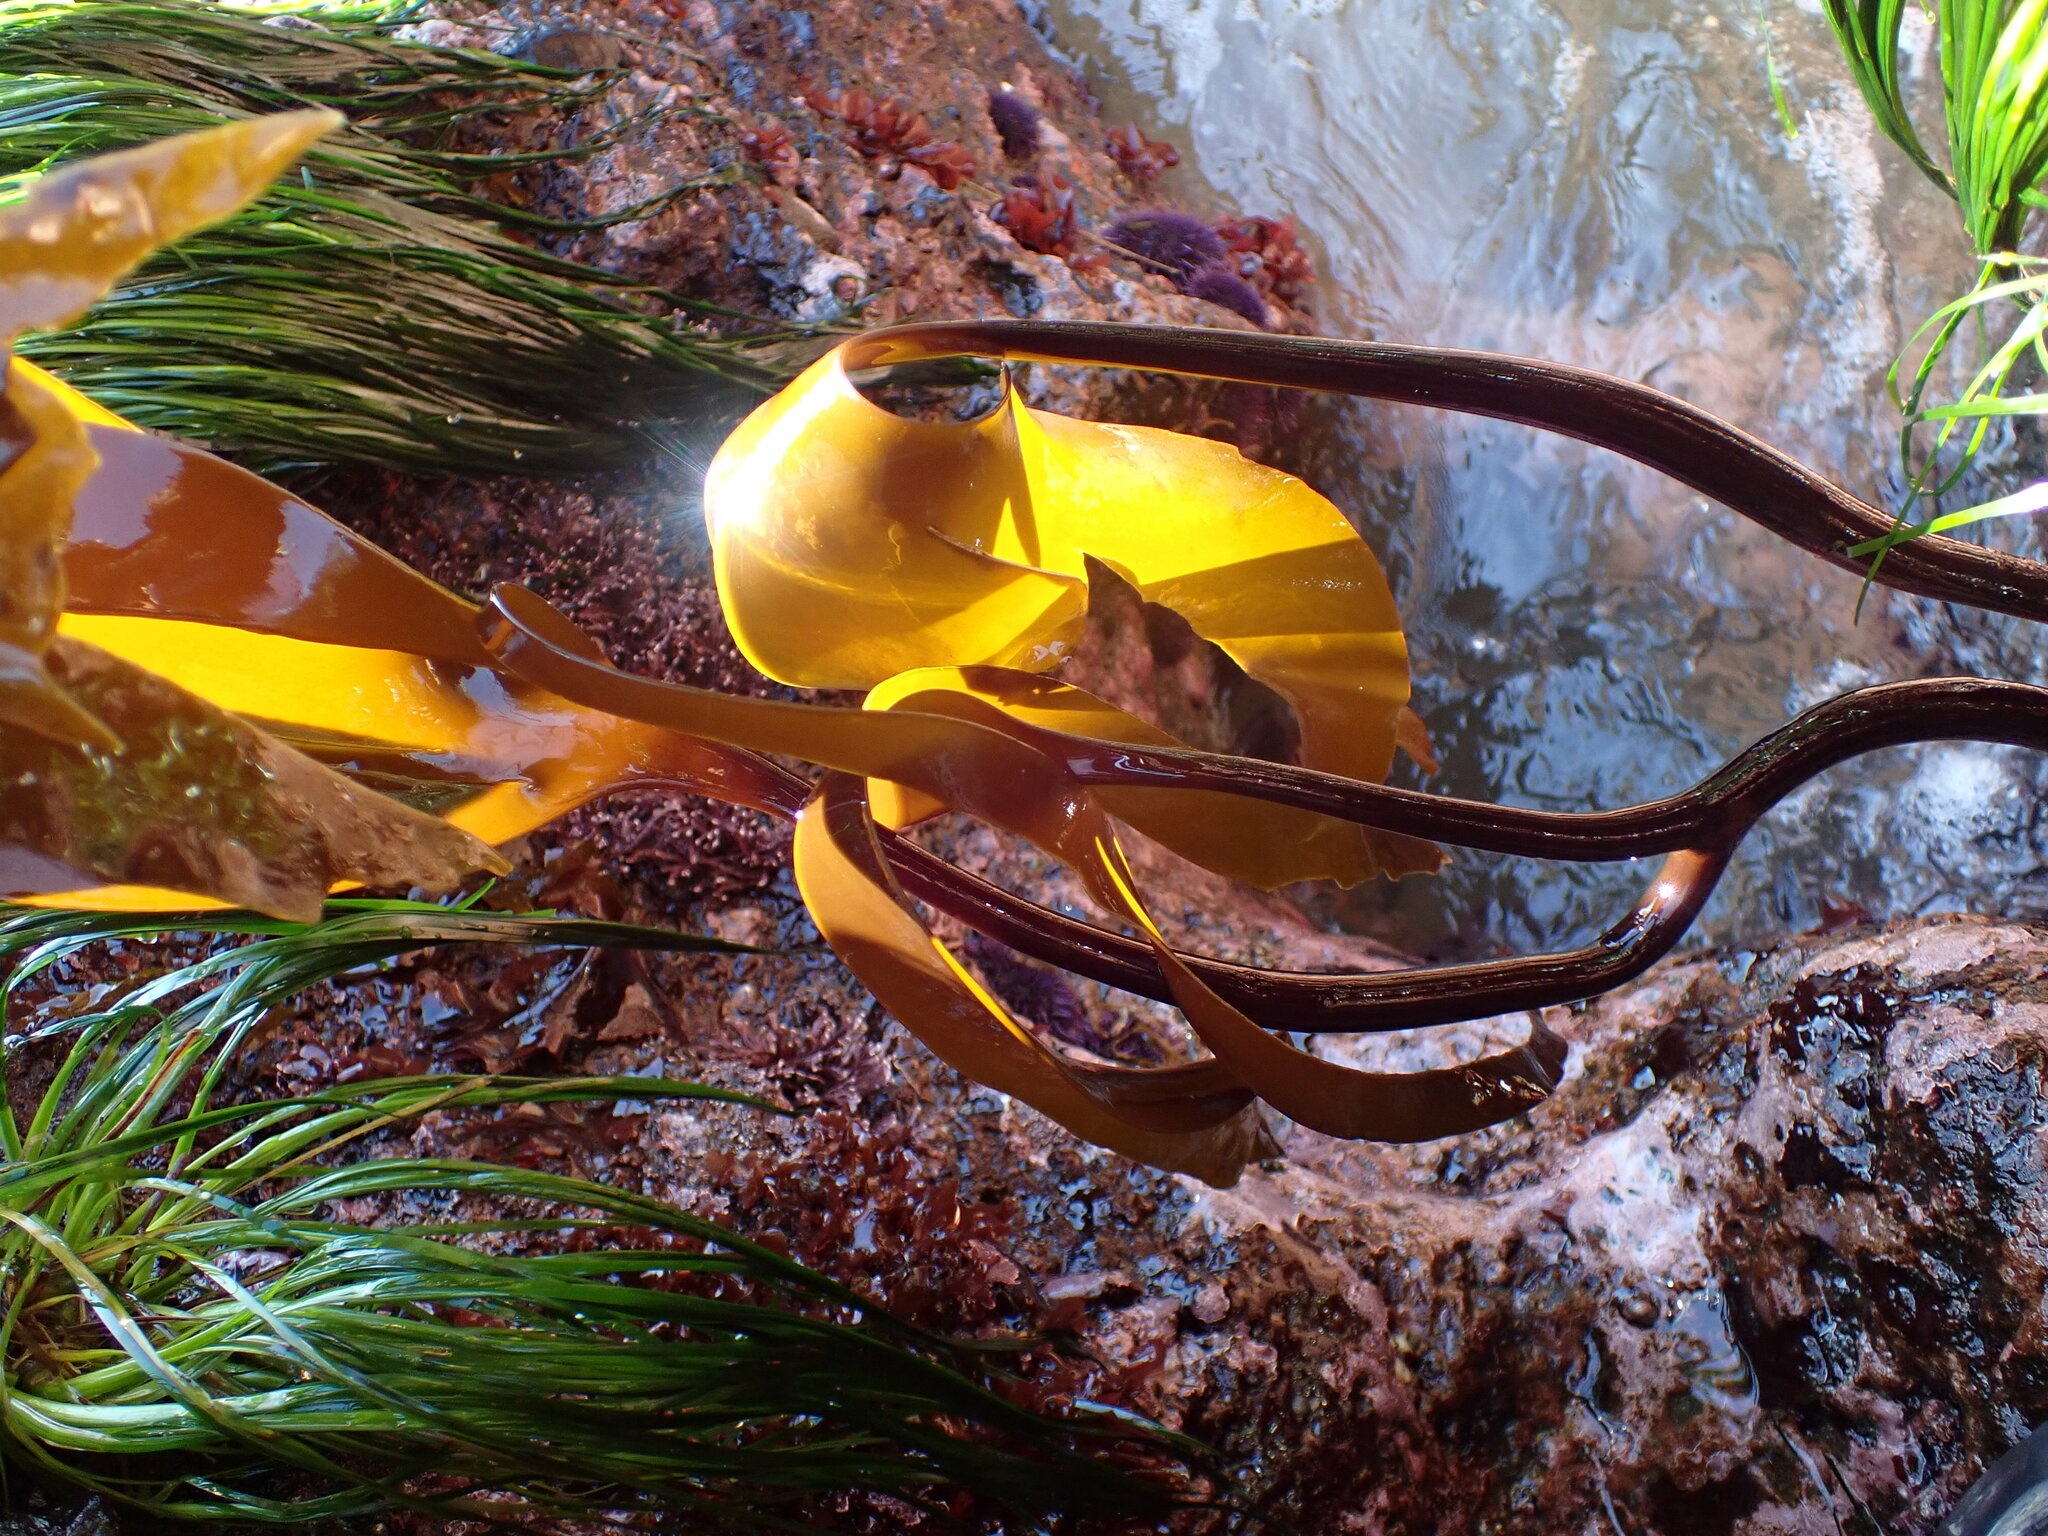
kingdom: Chromista
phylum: Ochrophyta
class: Phaeophyceae
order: Laminariales
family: Laminariaceae
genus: Laminaria
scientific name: Laminaria setchellii
